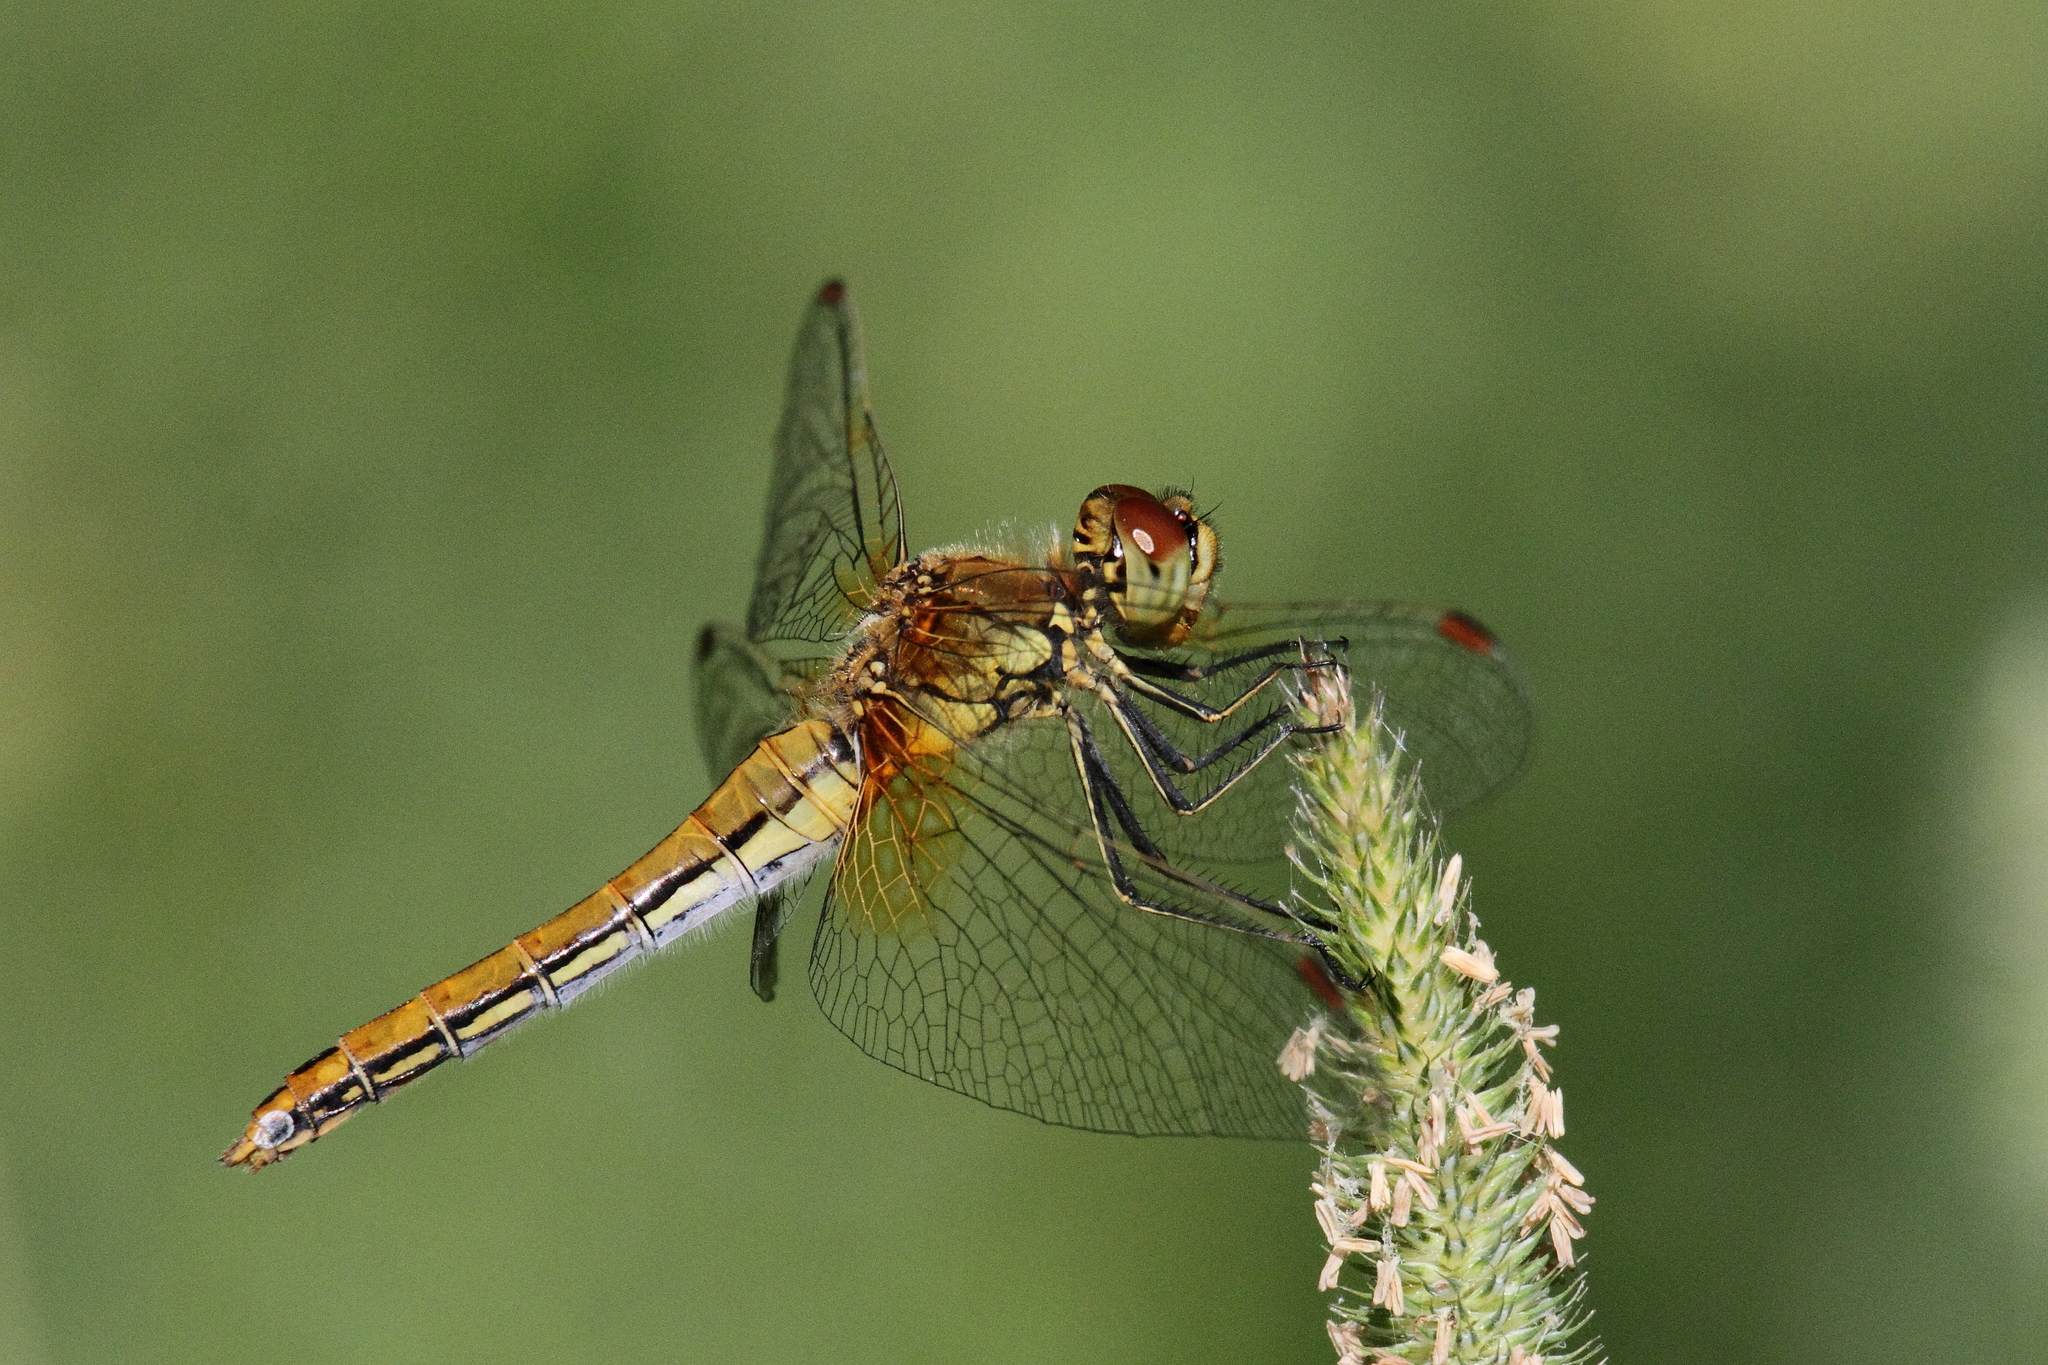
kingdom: Animalia
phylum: Arthropoda
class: Insecta
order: Odonata
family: Libellulidae
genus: Sympetrum
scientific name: Sympetrum flaveolum
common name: Yellow-winged darter
